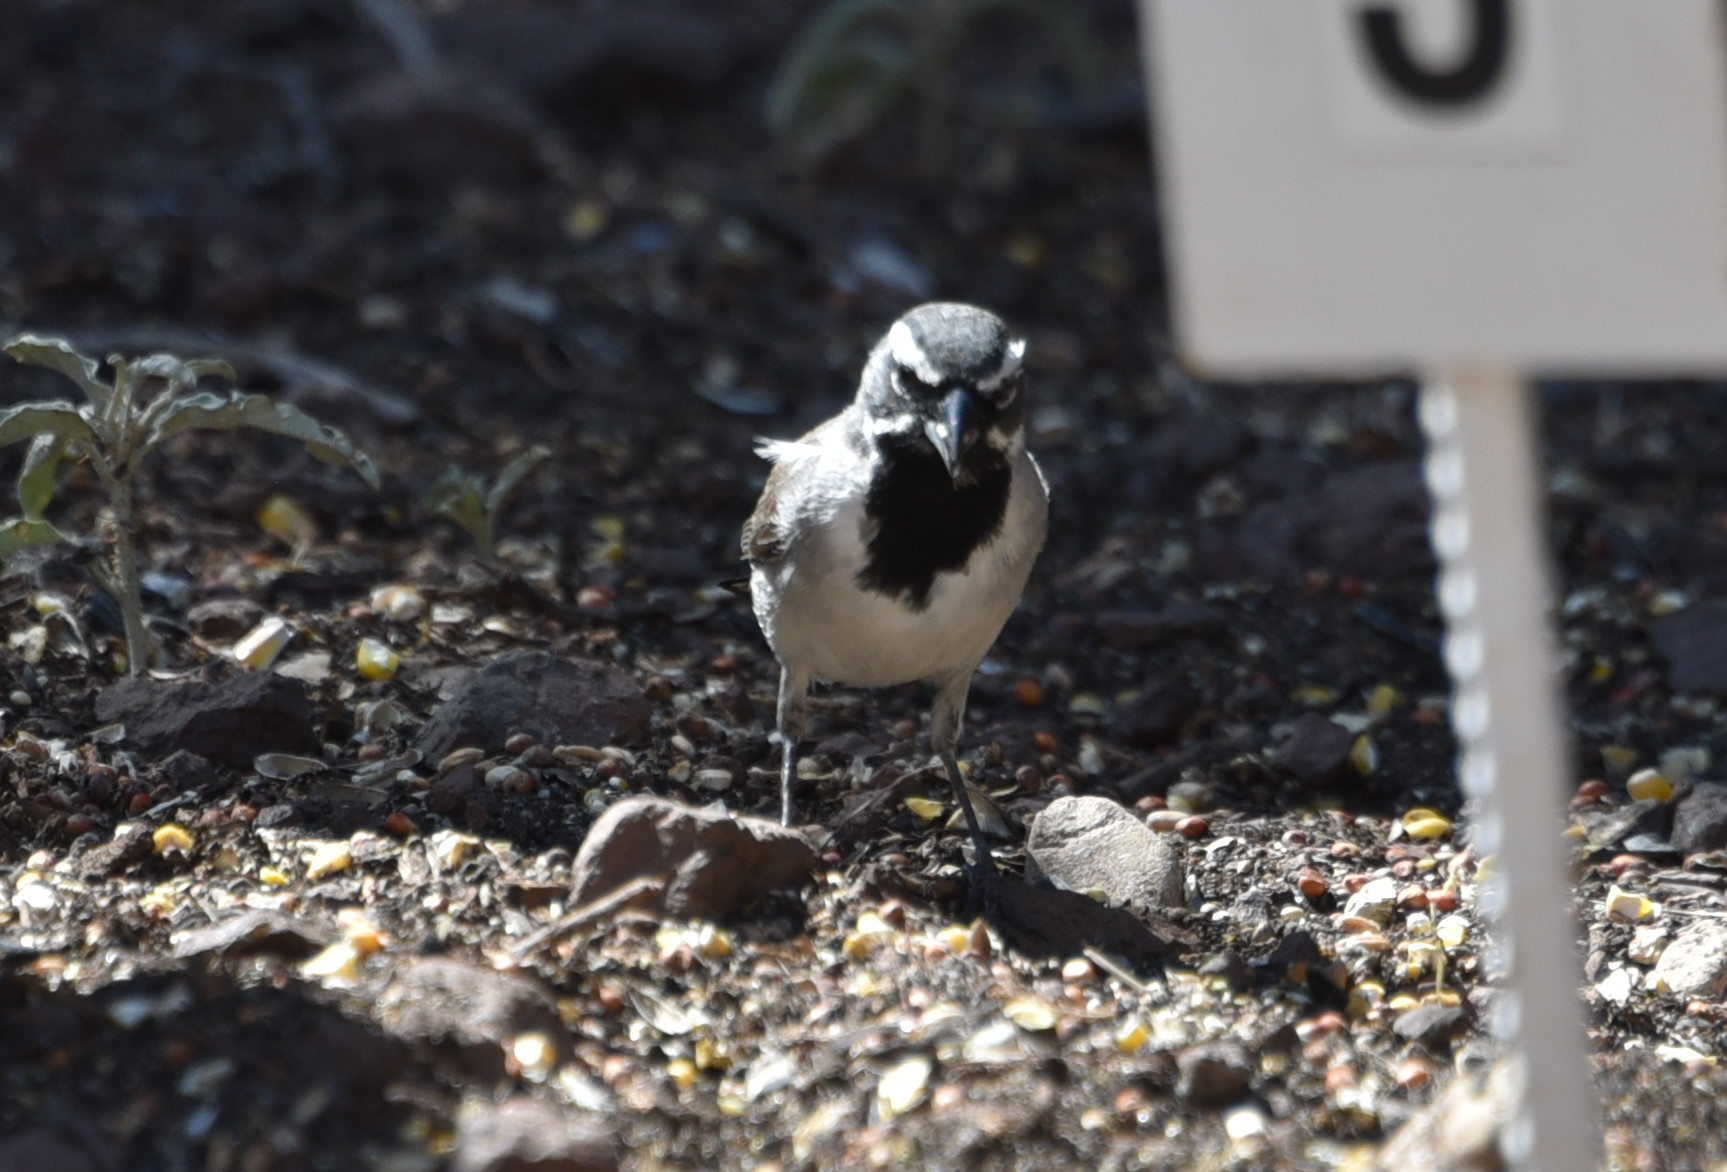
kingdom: Animalia
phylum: Chordata
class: Aves
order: Passeriformes
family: Passerellidae
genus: Amphispiza
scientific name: Amphispiza bilineata
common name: Black-throated sparrow
